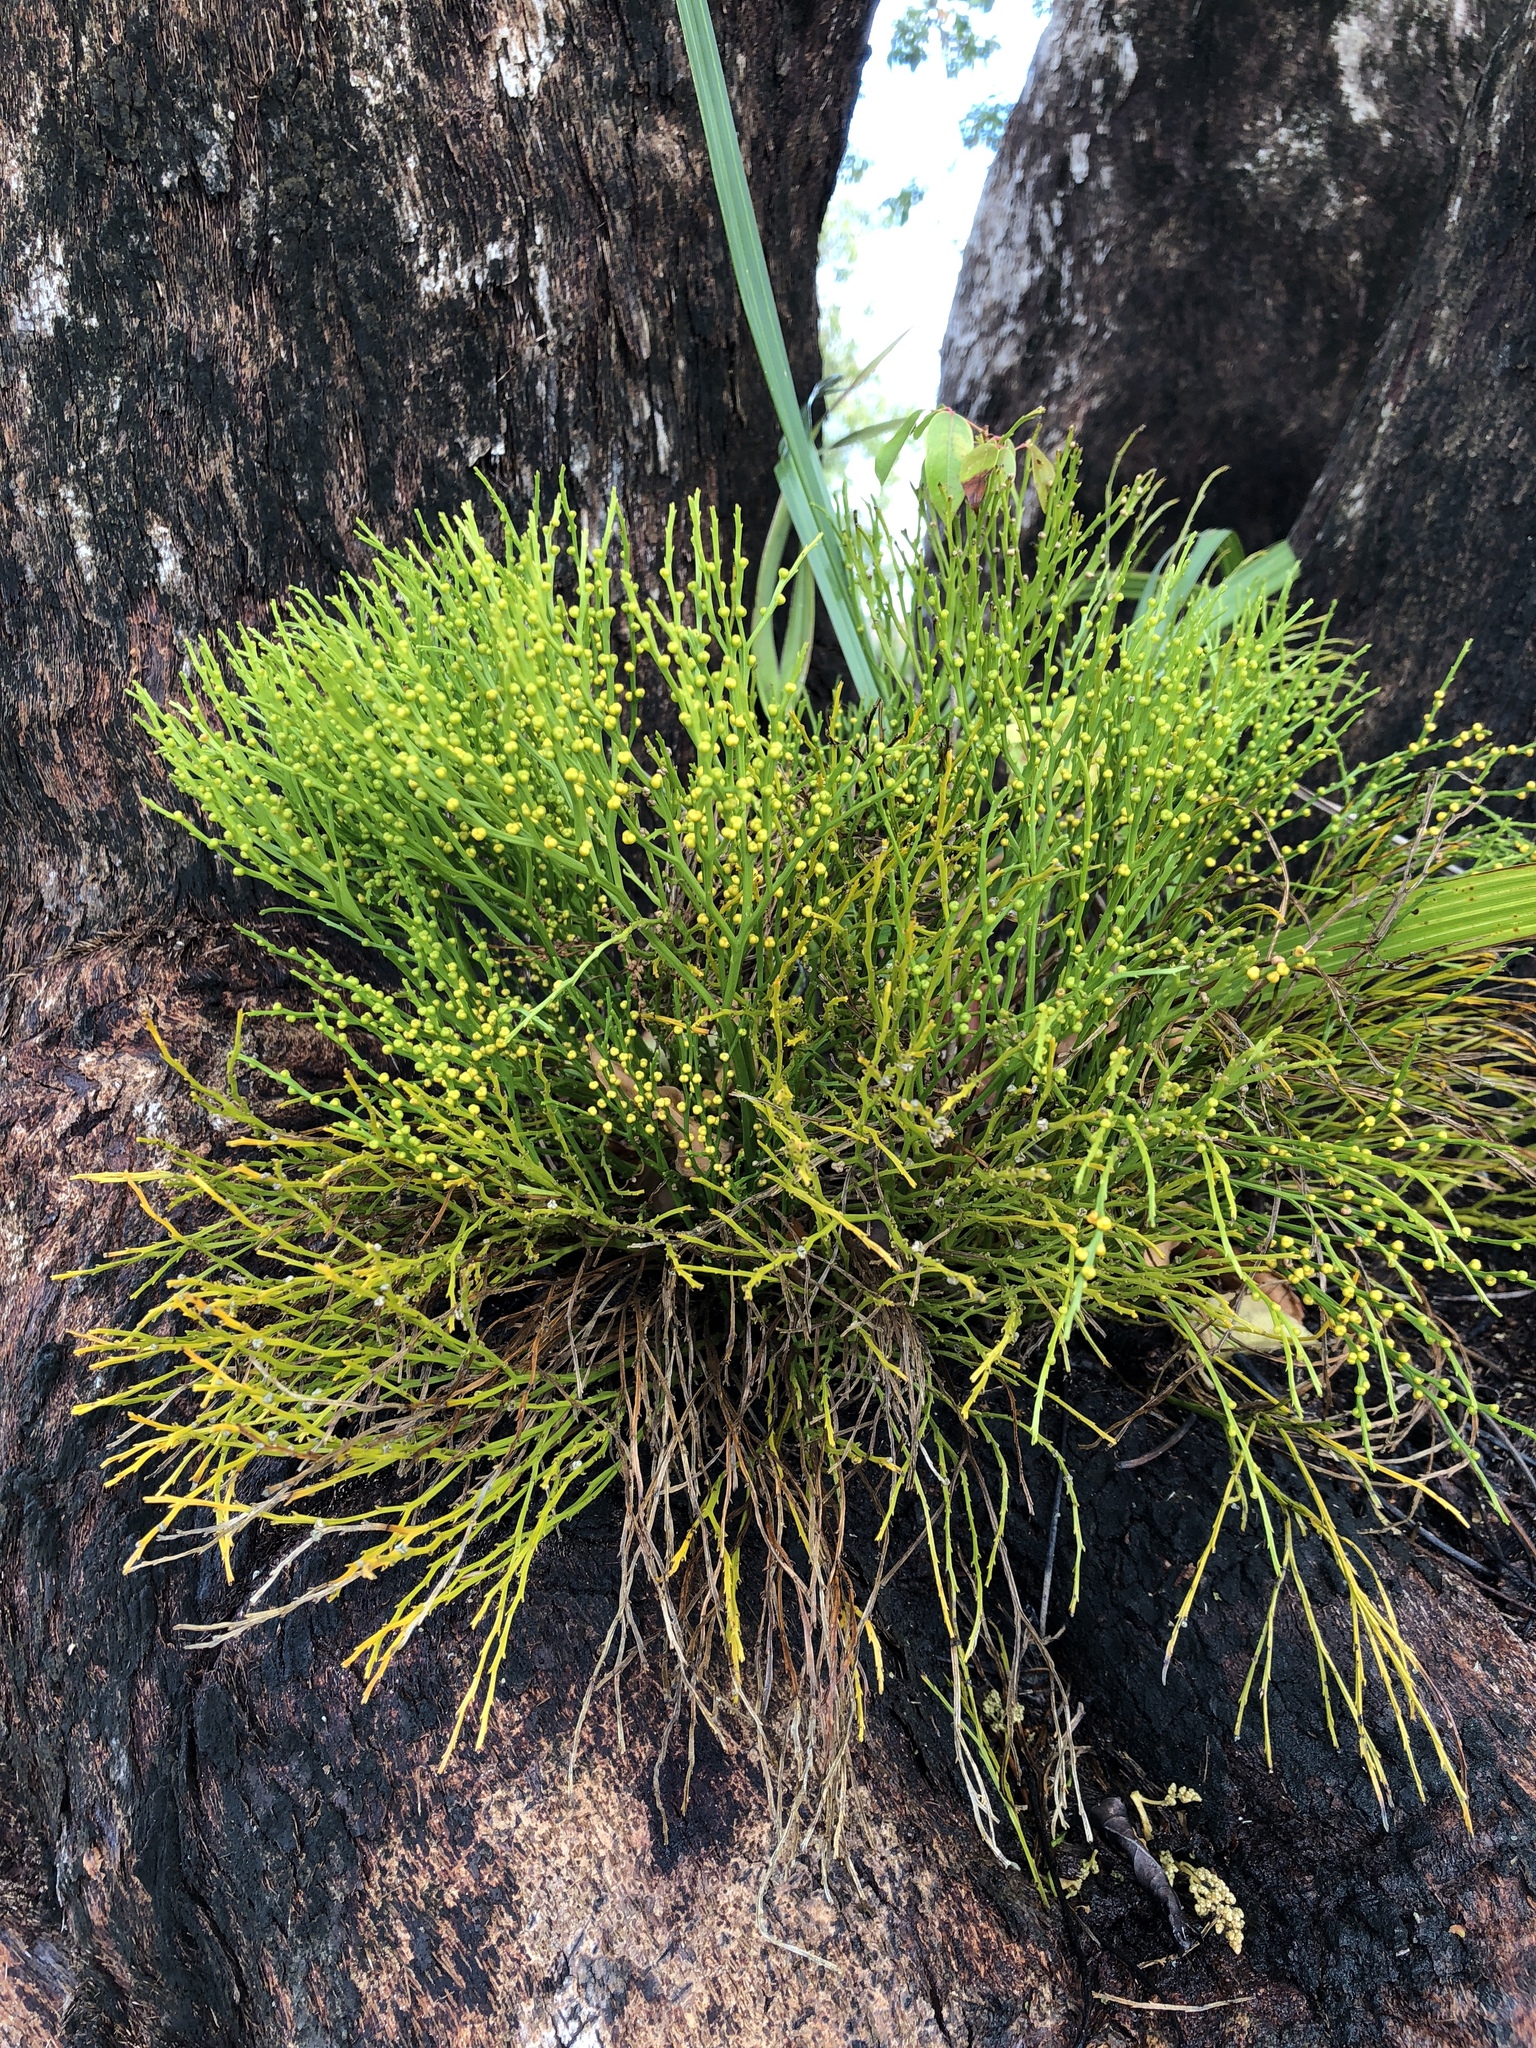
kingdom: Plantae
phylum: Tracheophyta
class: Polypodiopsida
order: Psilotales
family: Psilotaceae
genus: Psilotum
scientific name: Psilotum nudum
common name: Skeleton fork fern
